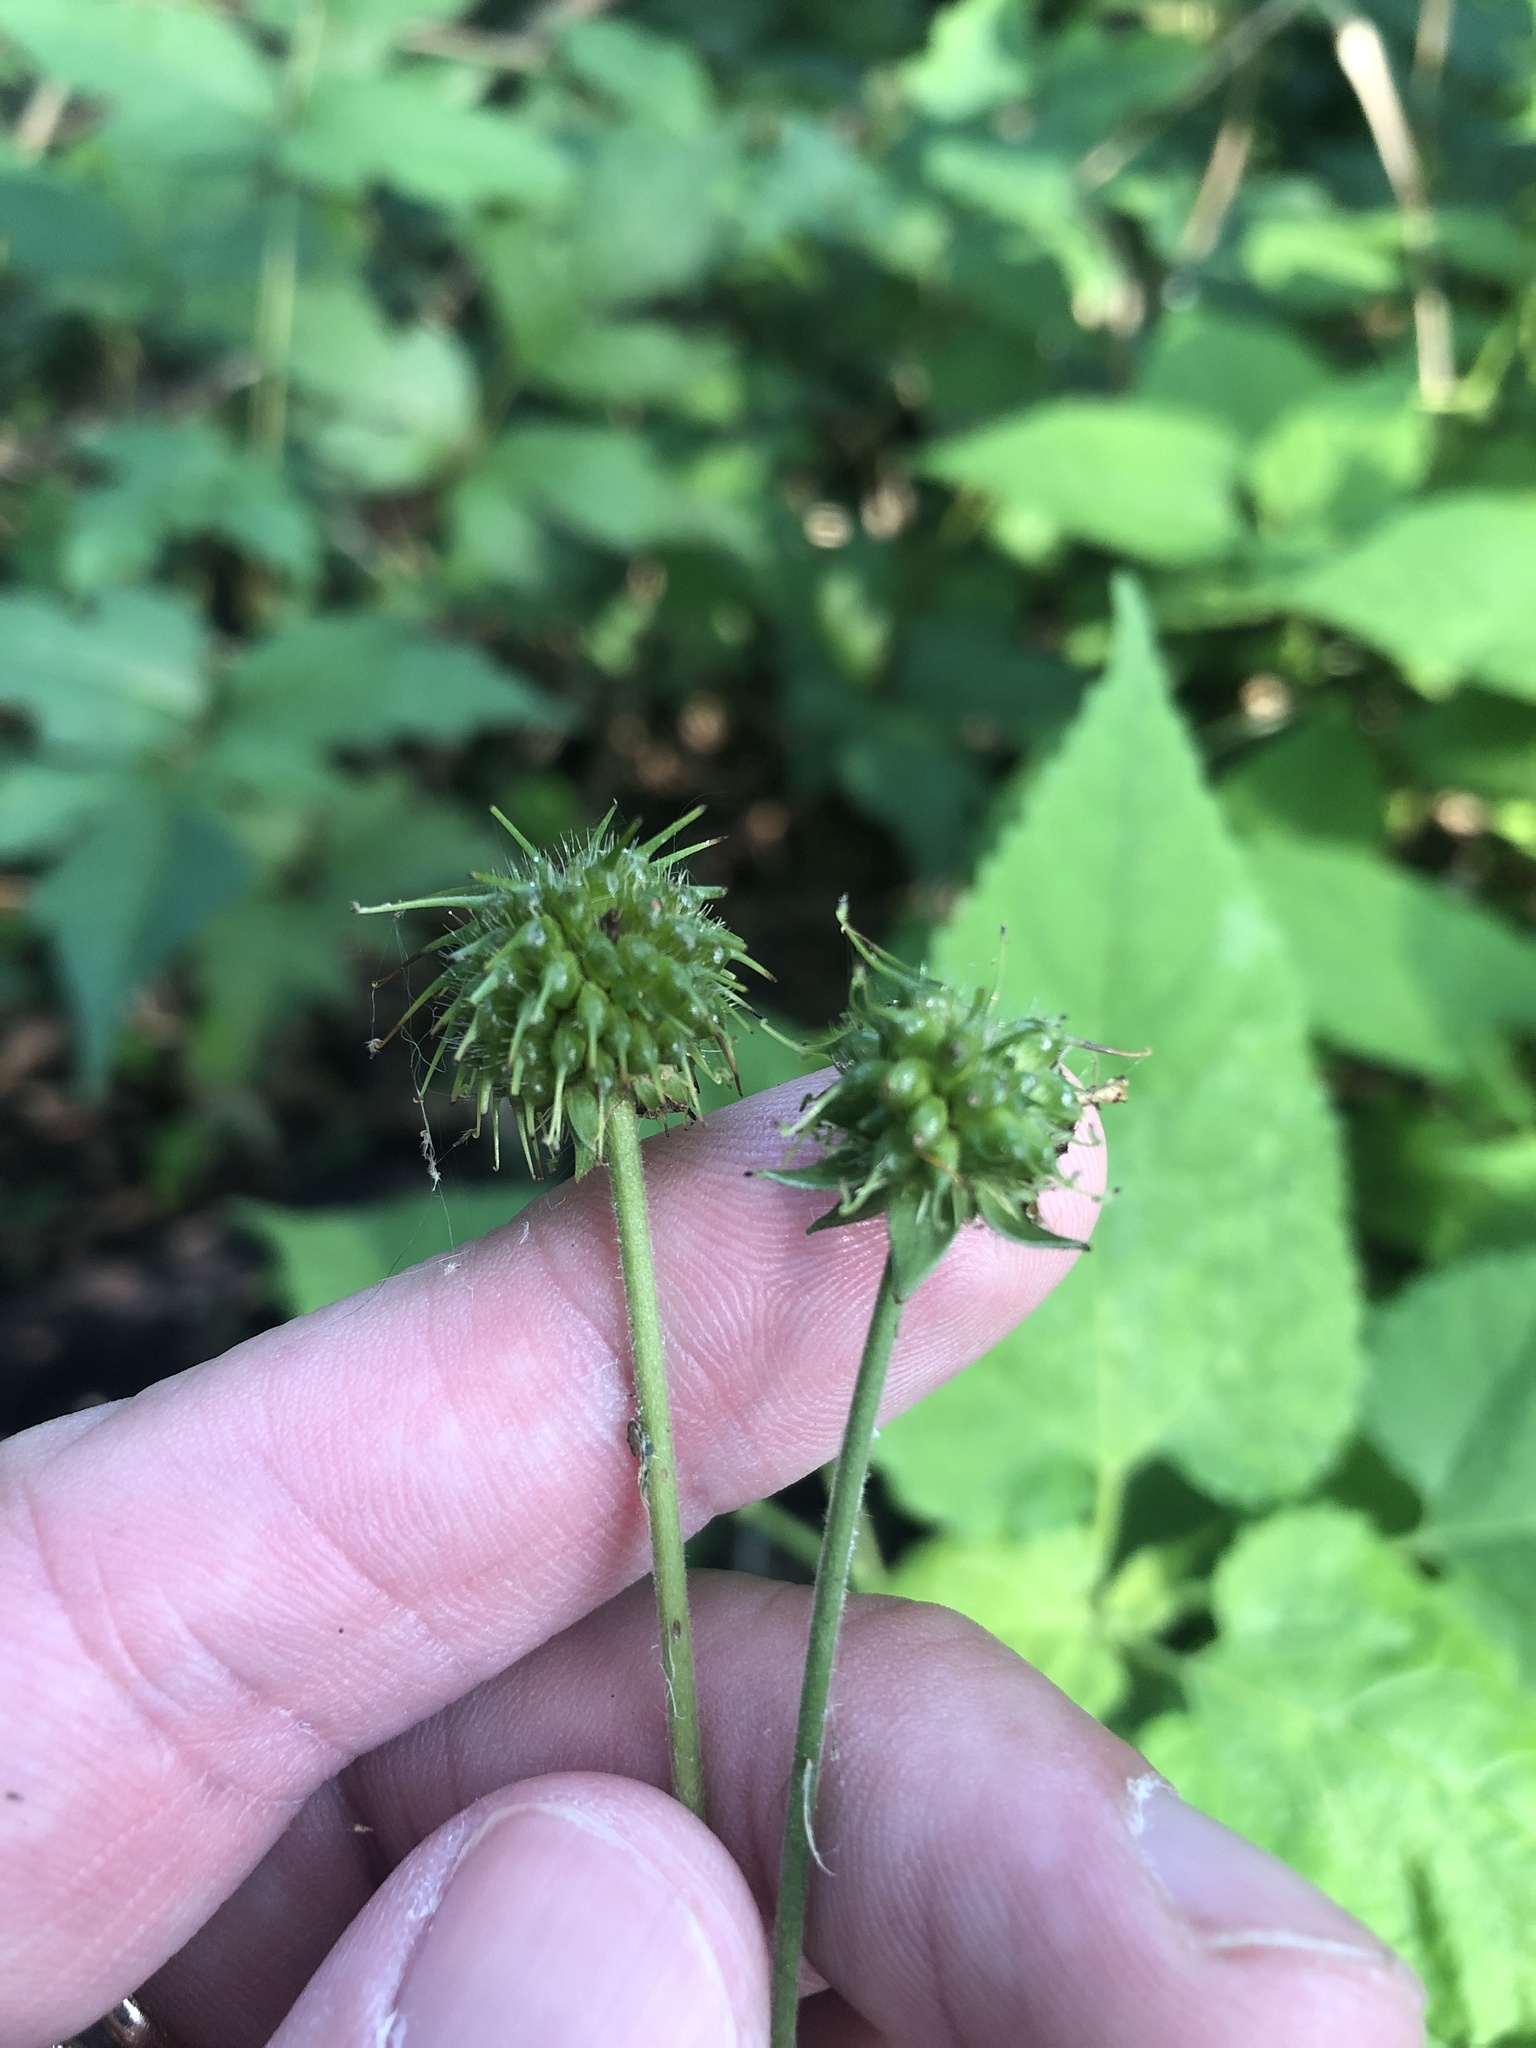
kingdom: Plantae
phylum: Tracheophyta
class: Magnoliopsida
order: Rosales
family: Rosaceae
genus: Geum
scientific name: Geum canadense
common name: White avens
